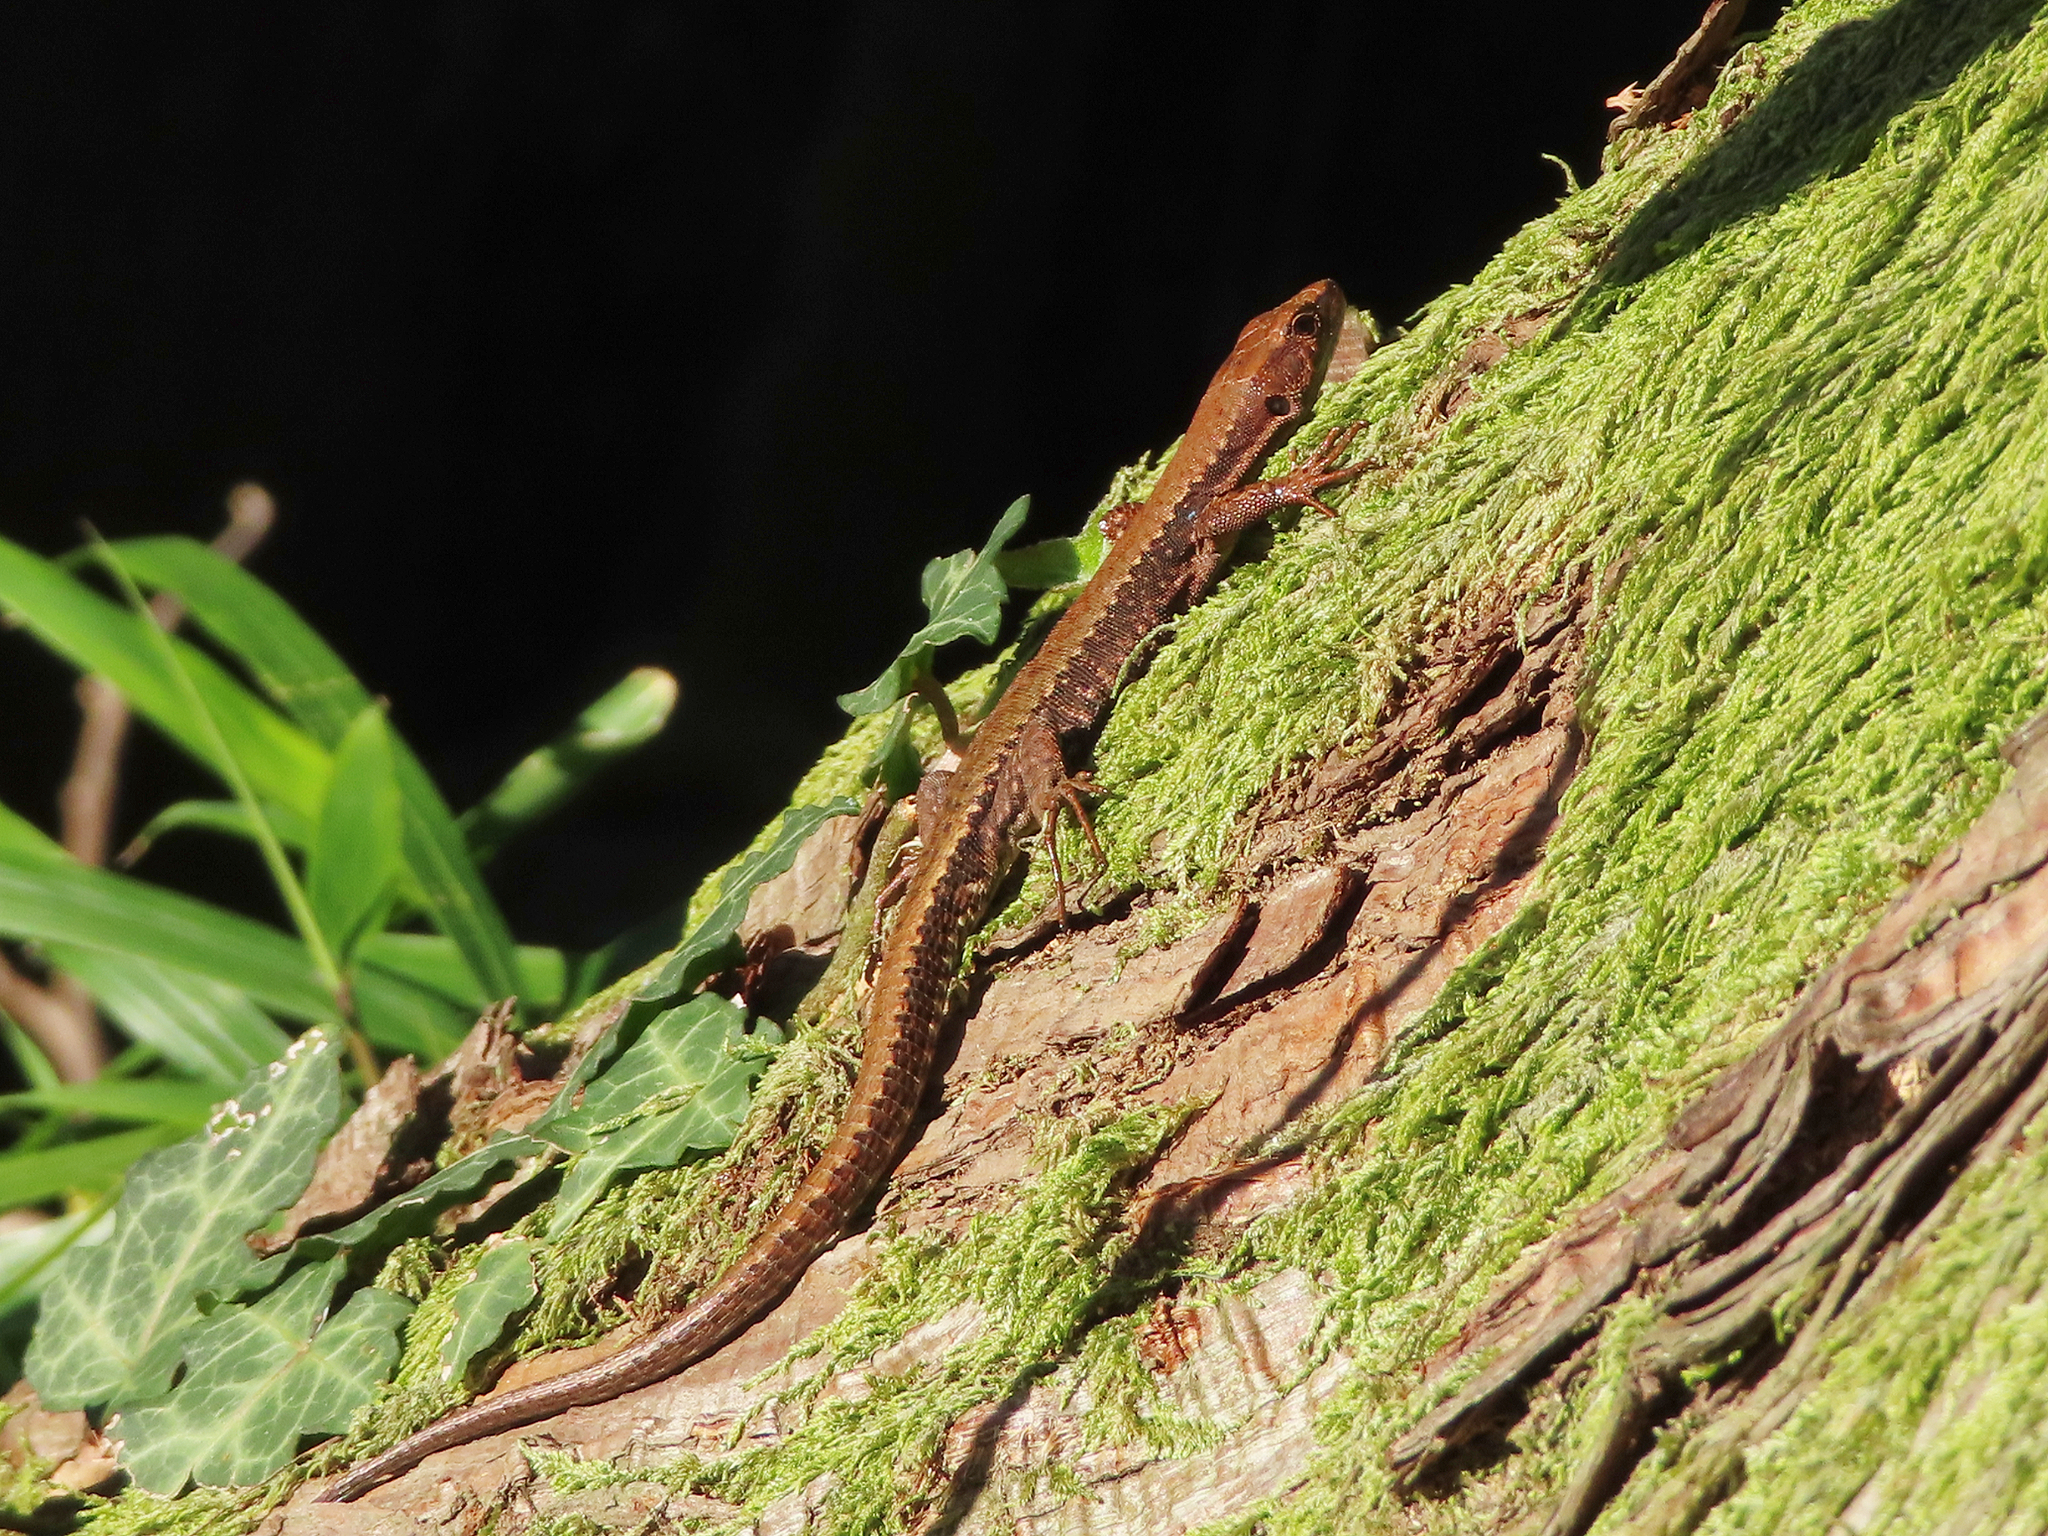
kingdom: Animalia
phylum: Chordata
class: Squamata
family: Lacertidae
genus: Darevskia
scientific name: Darevskia derjugini
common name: Derjugin's lizard
